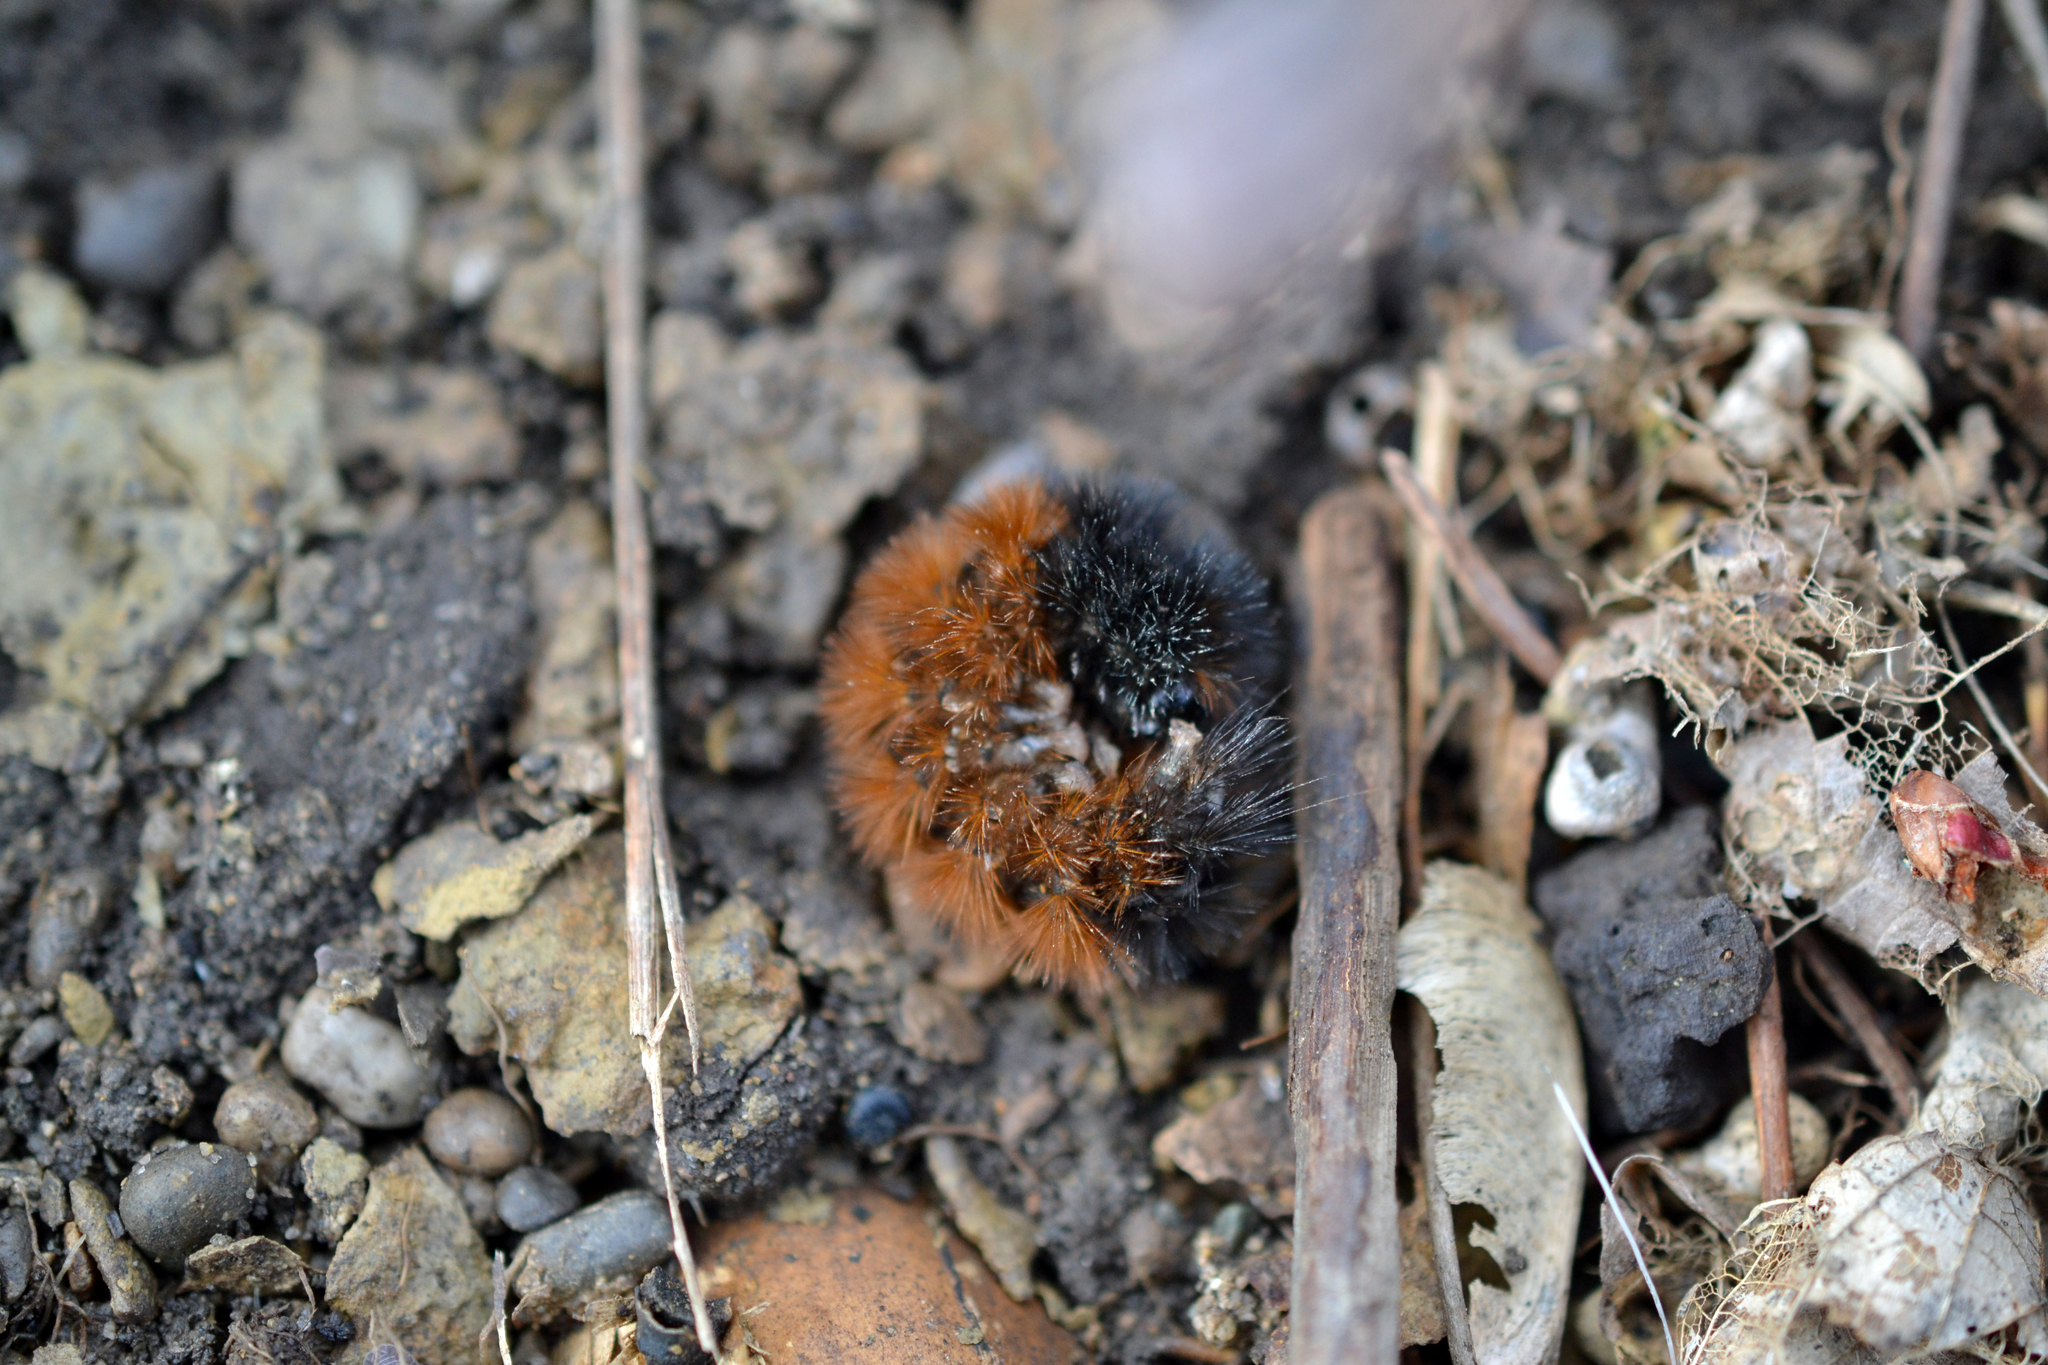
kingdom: Animalia
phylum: Arthropoda
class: Insecta
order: Lepidoptera
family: Erebidae
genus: Pyrrharctia
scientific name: Pyrrharctia isabella
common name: Isabella tiger moth
